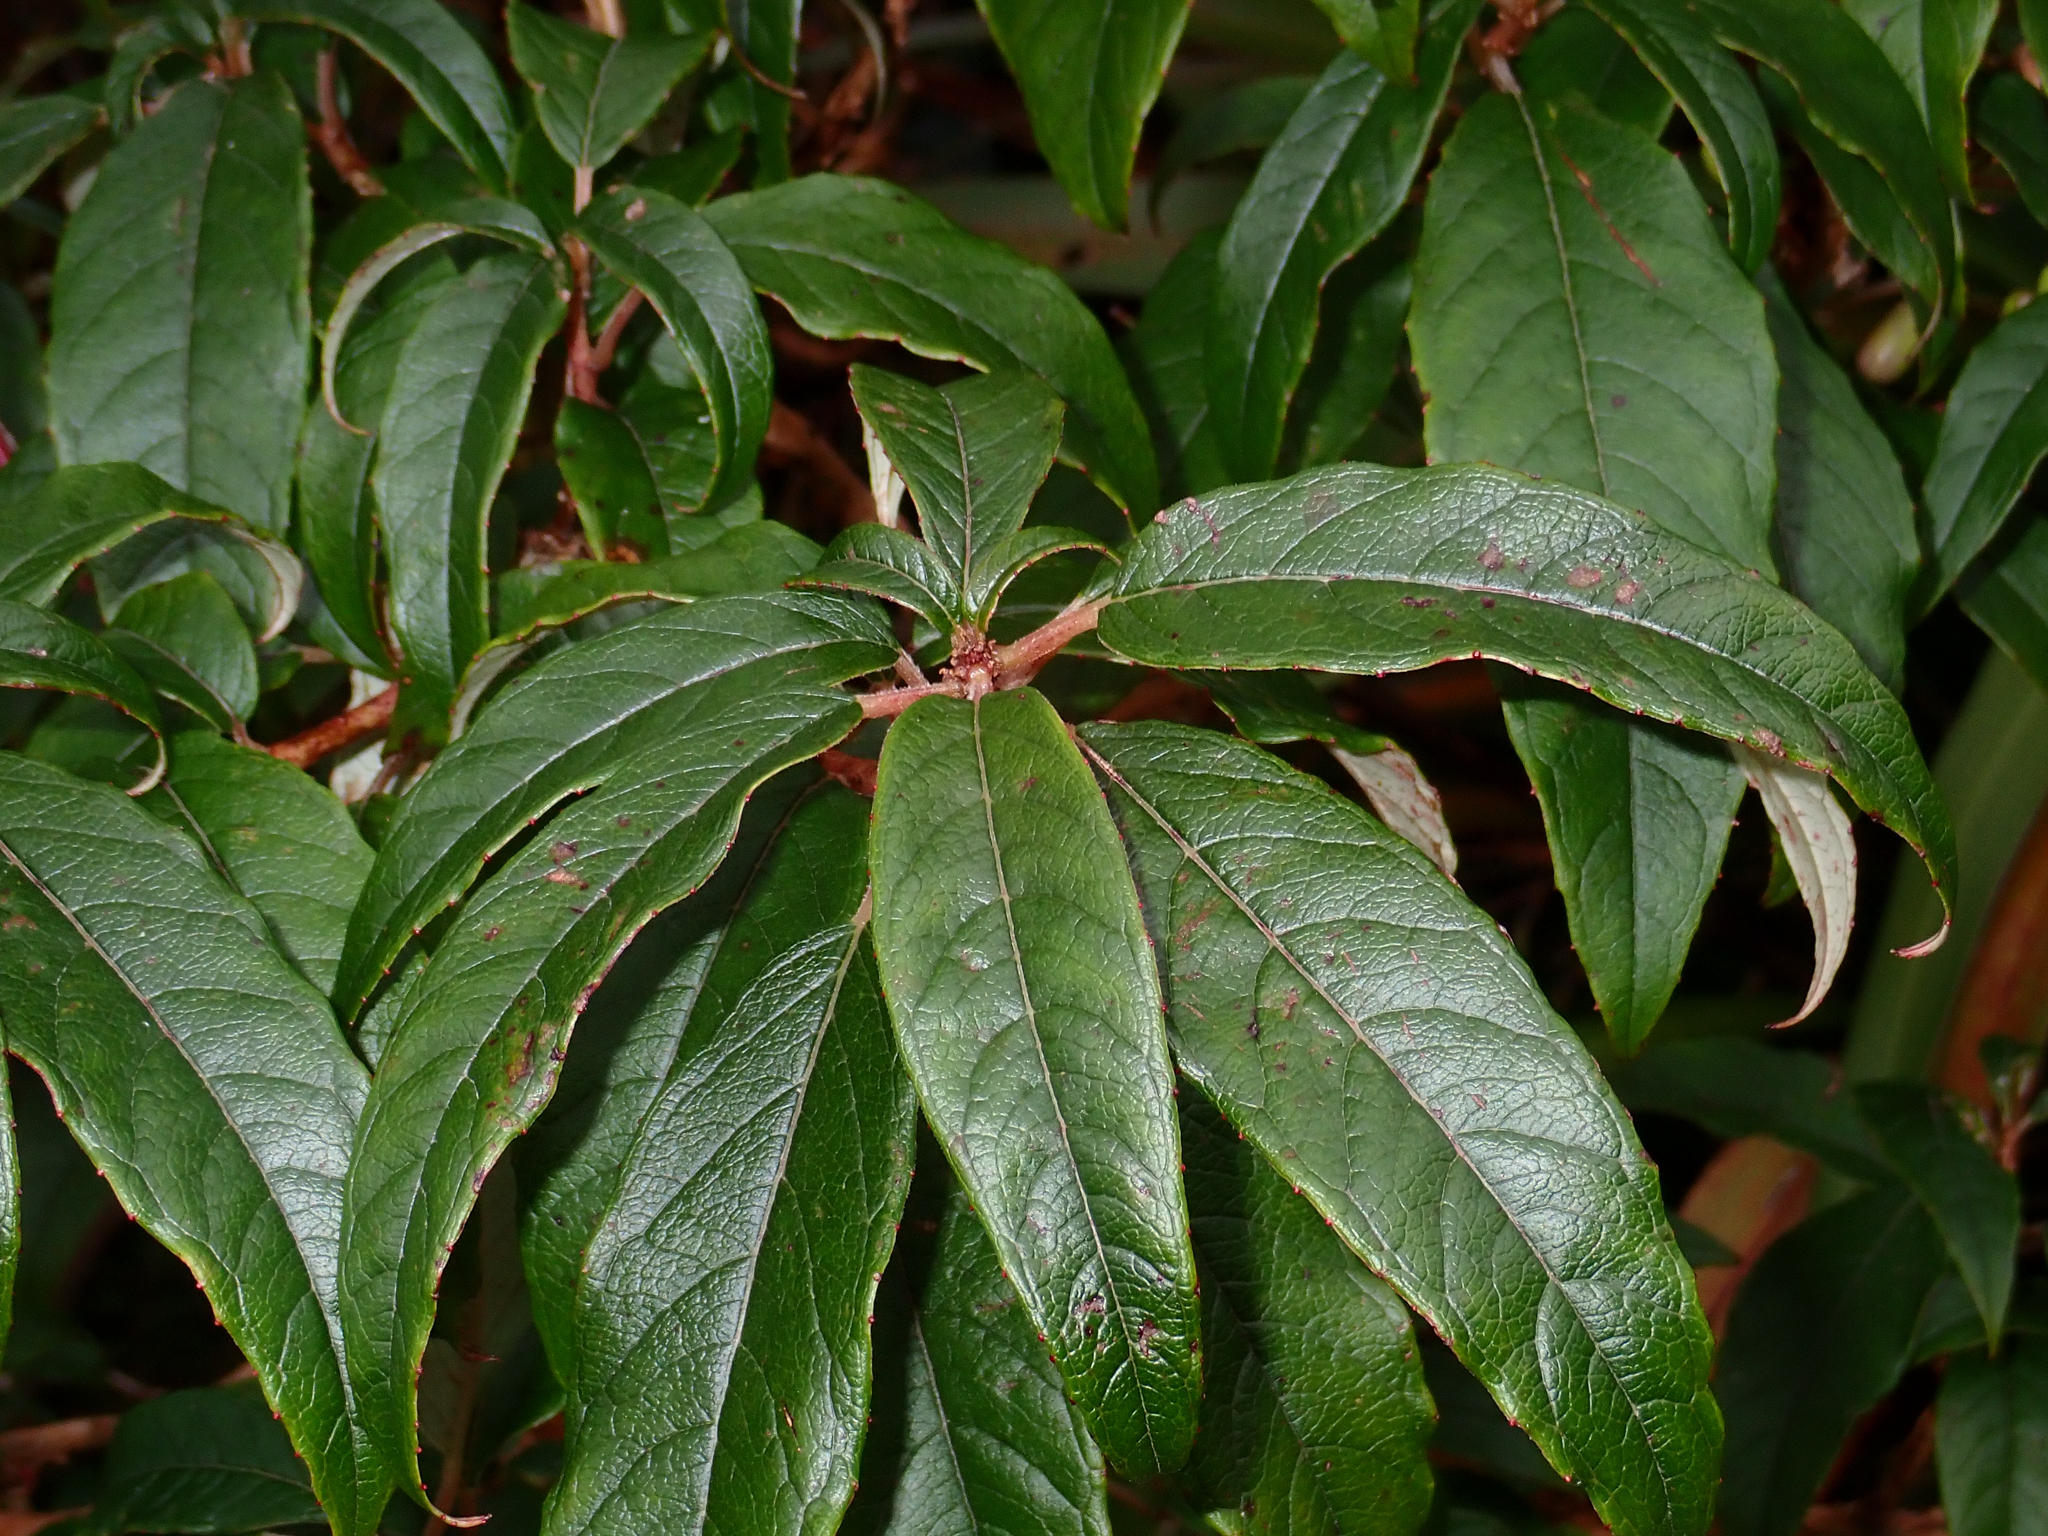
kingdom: Plantae
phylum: Tracheophyta
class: Magnoliopsida
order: Myrtales
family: Onagraceae
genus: Fuchsia
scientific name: Fuchsia excorticata
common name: Tree fuchsia
